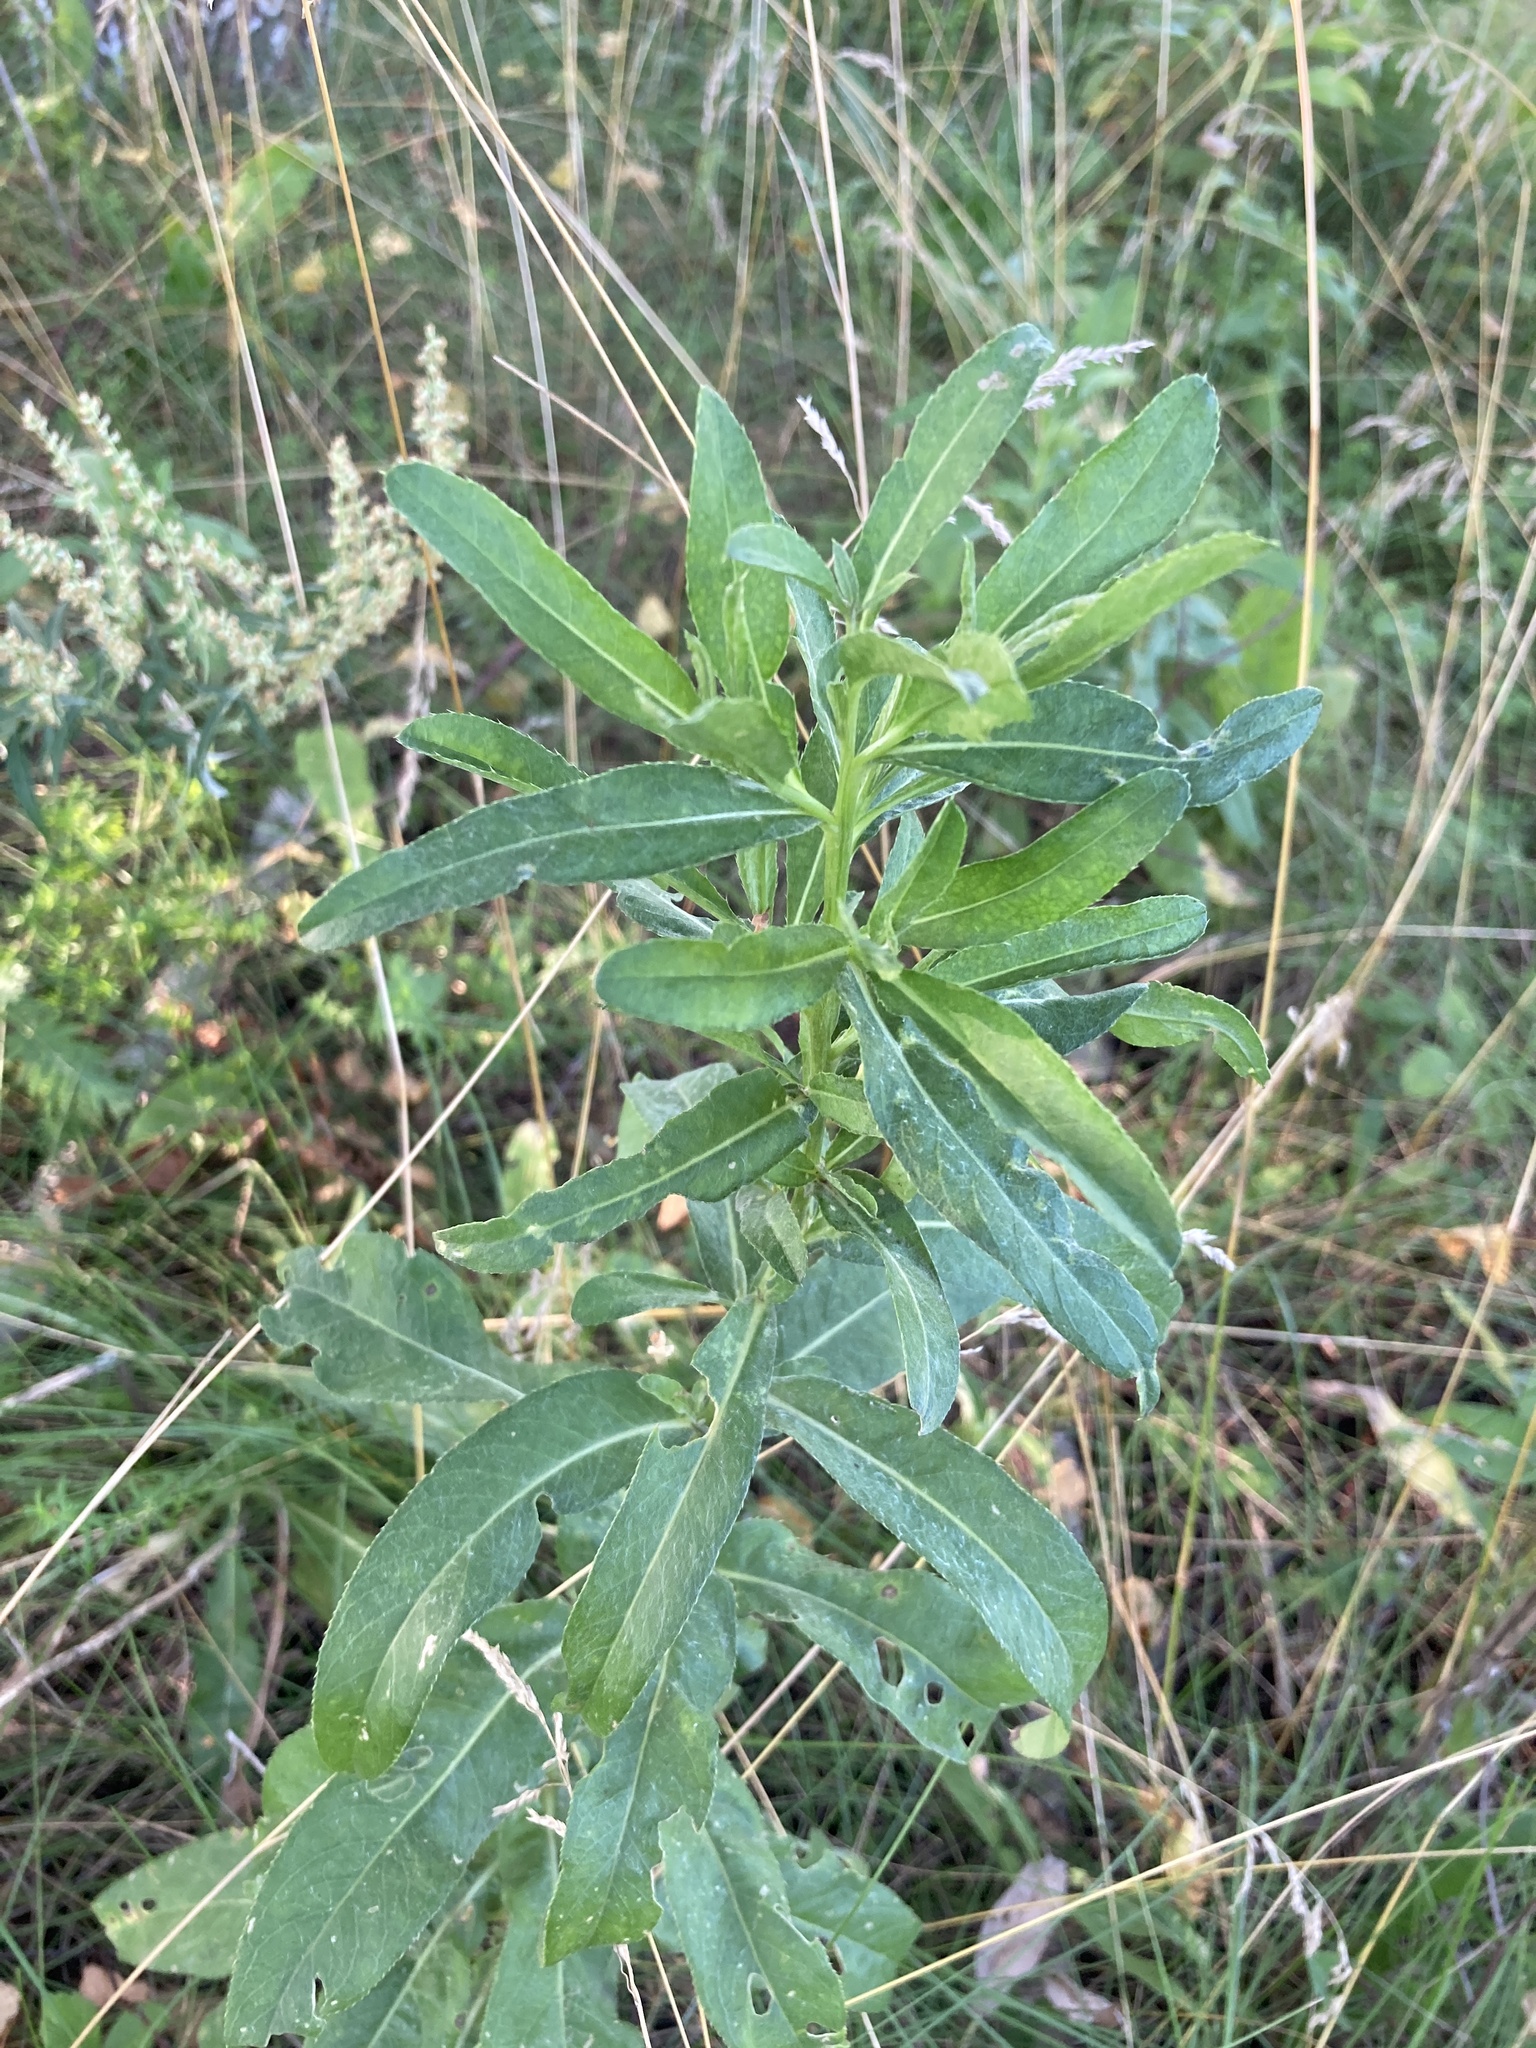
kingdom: Plantae
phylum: Tracheophyta
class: Magnoliopsida
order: Asterales
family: Asteraceae
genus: Cirsium
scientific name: Cirsium arvense
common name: Creeping thistle
